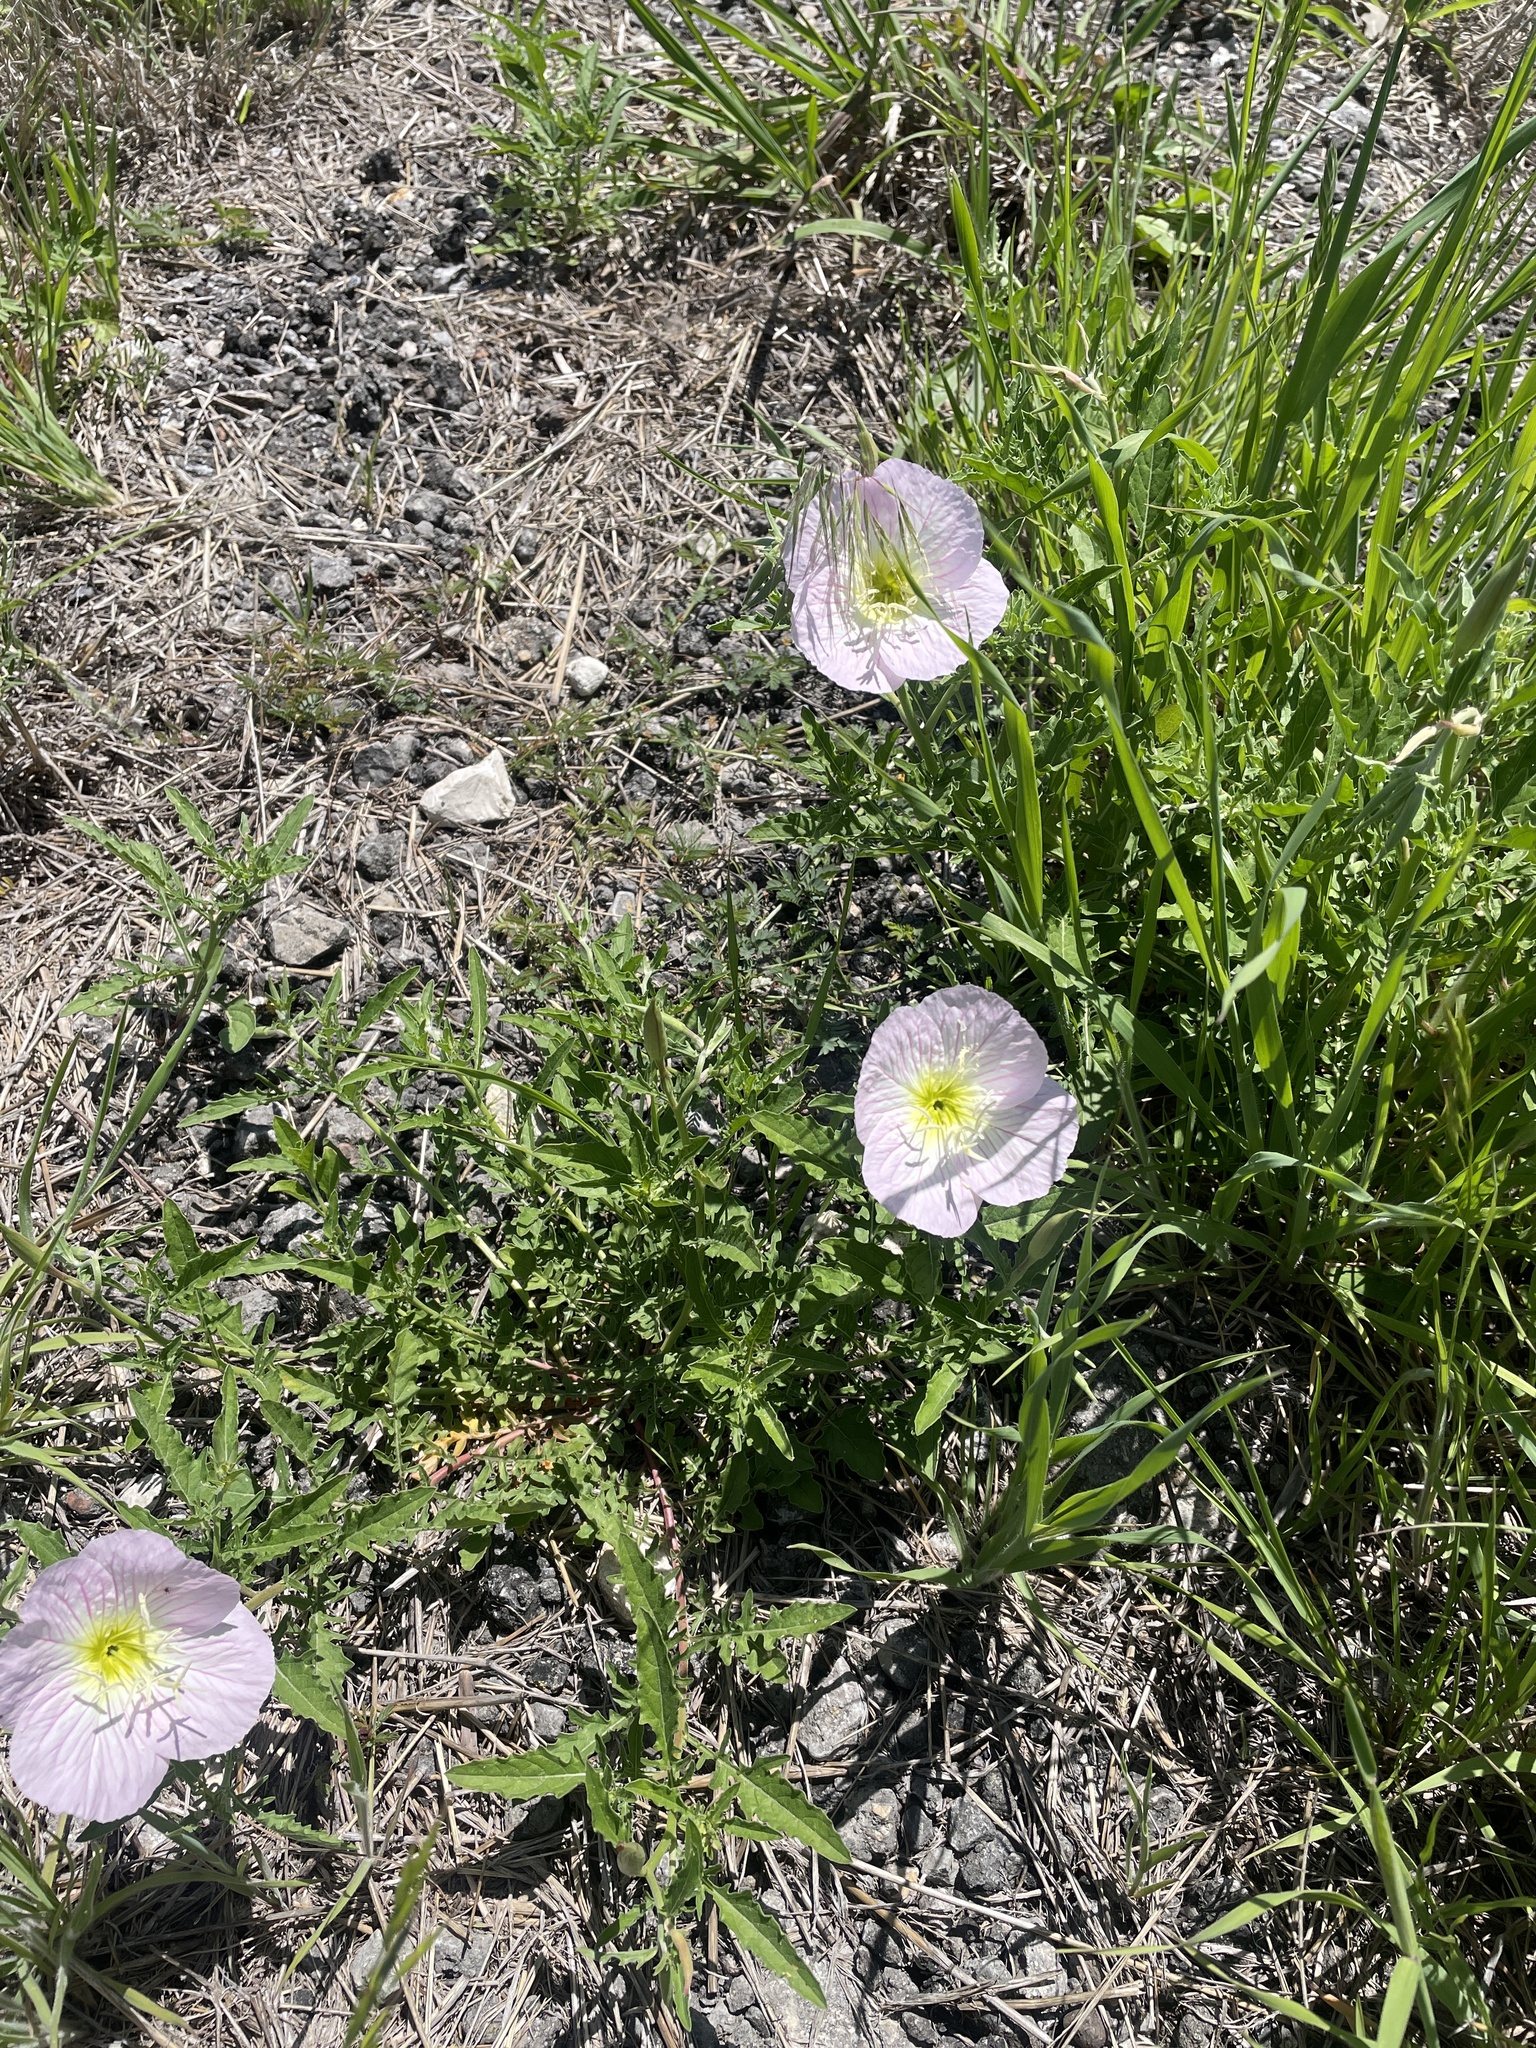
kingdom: Plantae
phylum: Tracheophyta
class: Magnoliopsida
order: Myrtales
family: Onagraceae
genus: Oenothera
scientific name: Oenothera speciosa
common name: White evening-primrose
